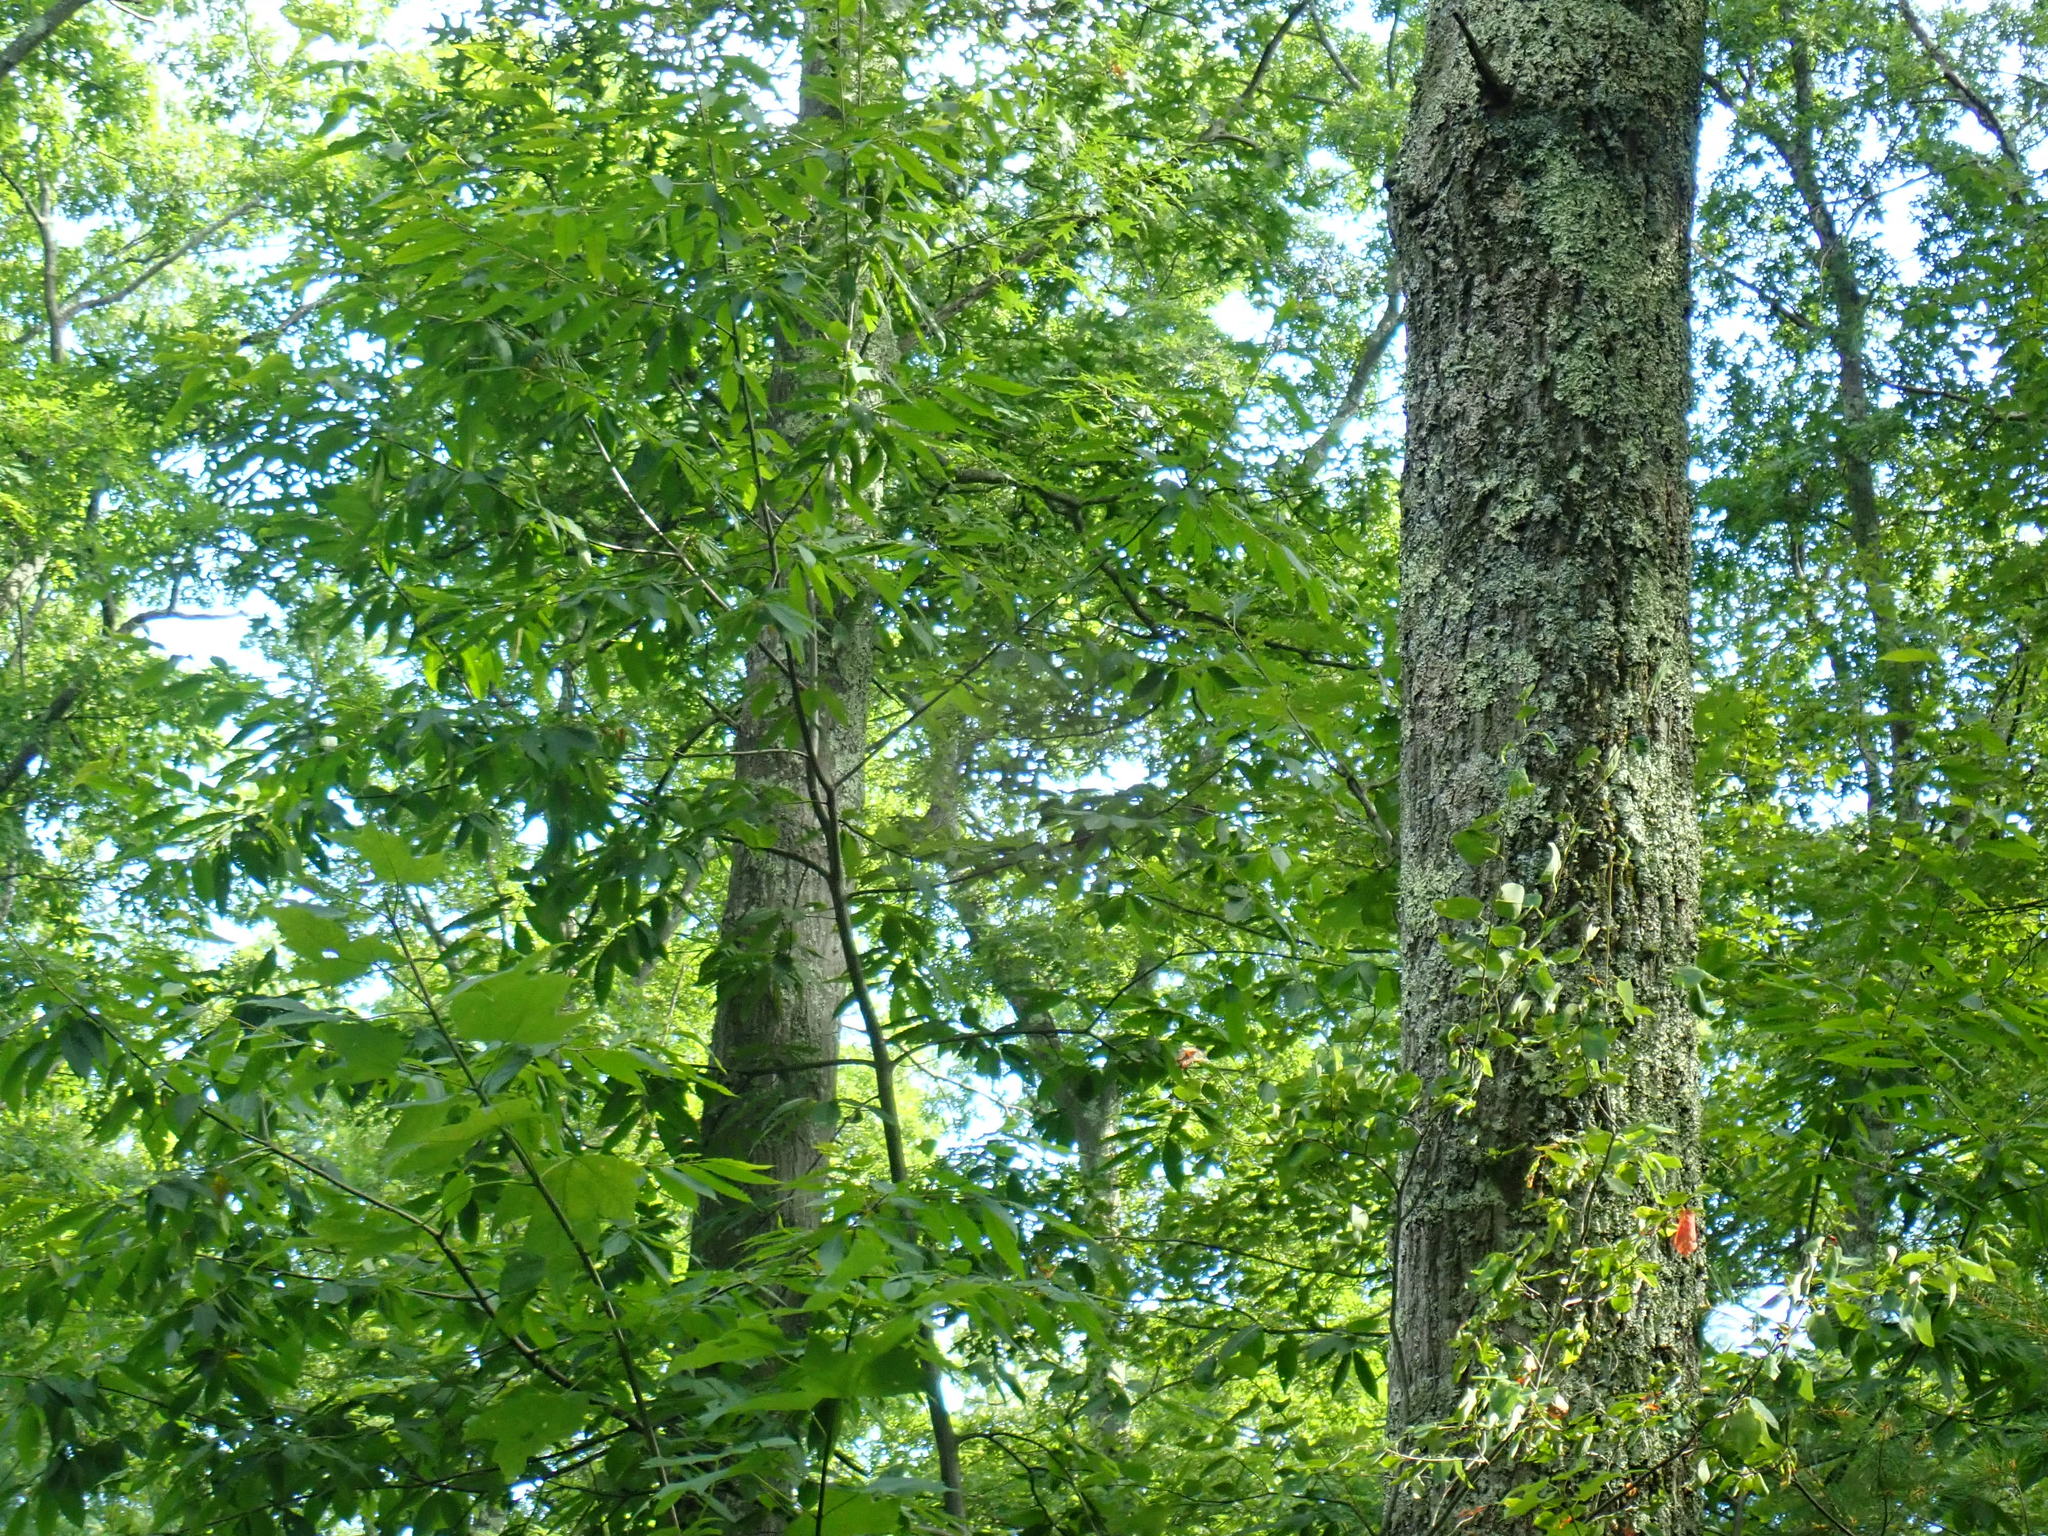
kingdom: Plantae
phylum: Tracheophyta
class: Magnoliopsida
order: Fagales
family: Fagaceae
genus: Castanea
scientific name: Castanea dentata
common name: American chestnut
